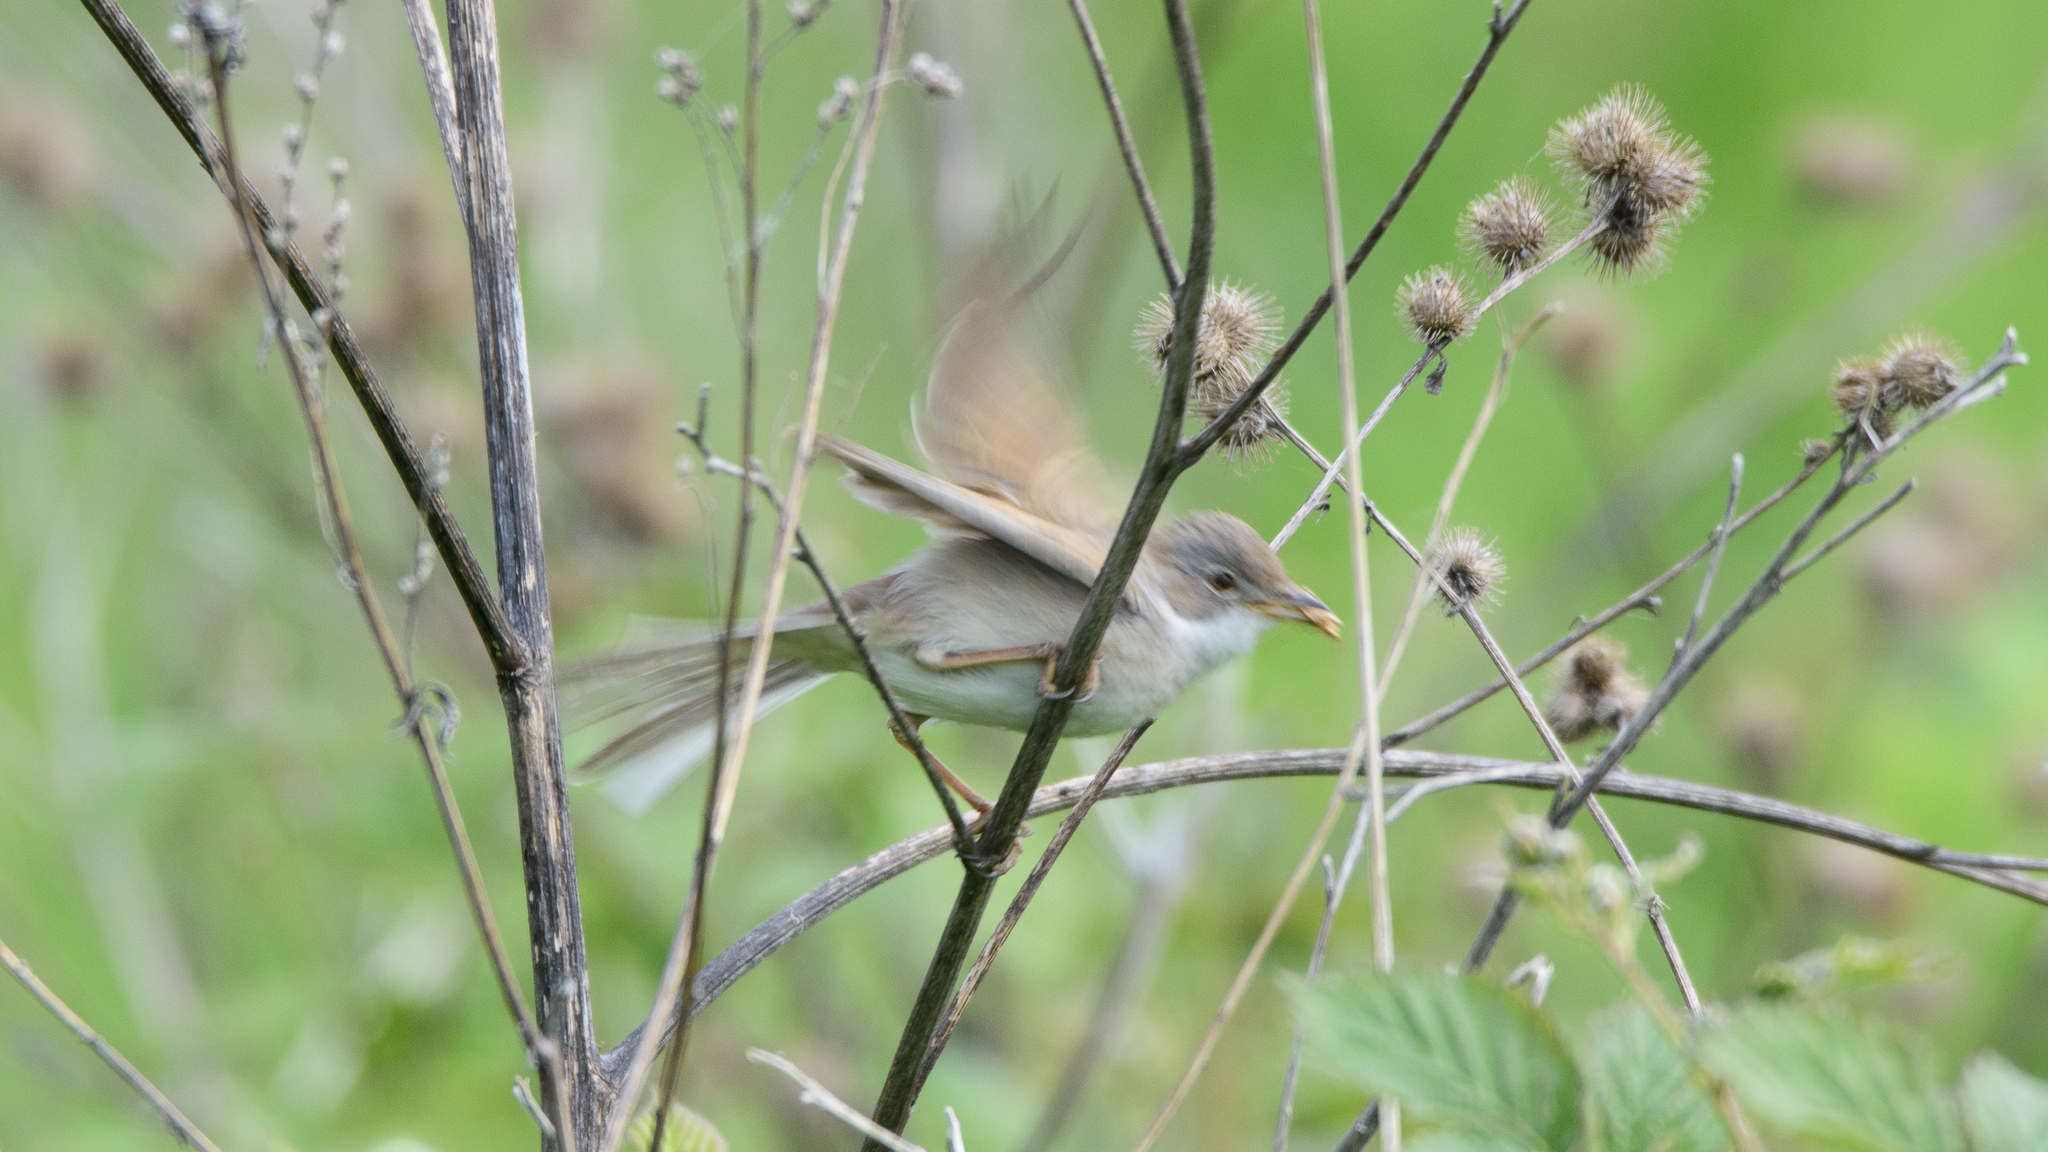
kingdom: Animalia
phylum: Chordata
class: Aves
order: Passeriformes
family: Sylviidae
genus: Sylvia
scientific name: Sylvia communis
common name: Common whitethroat
